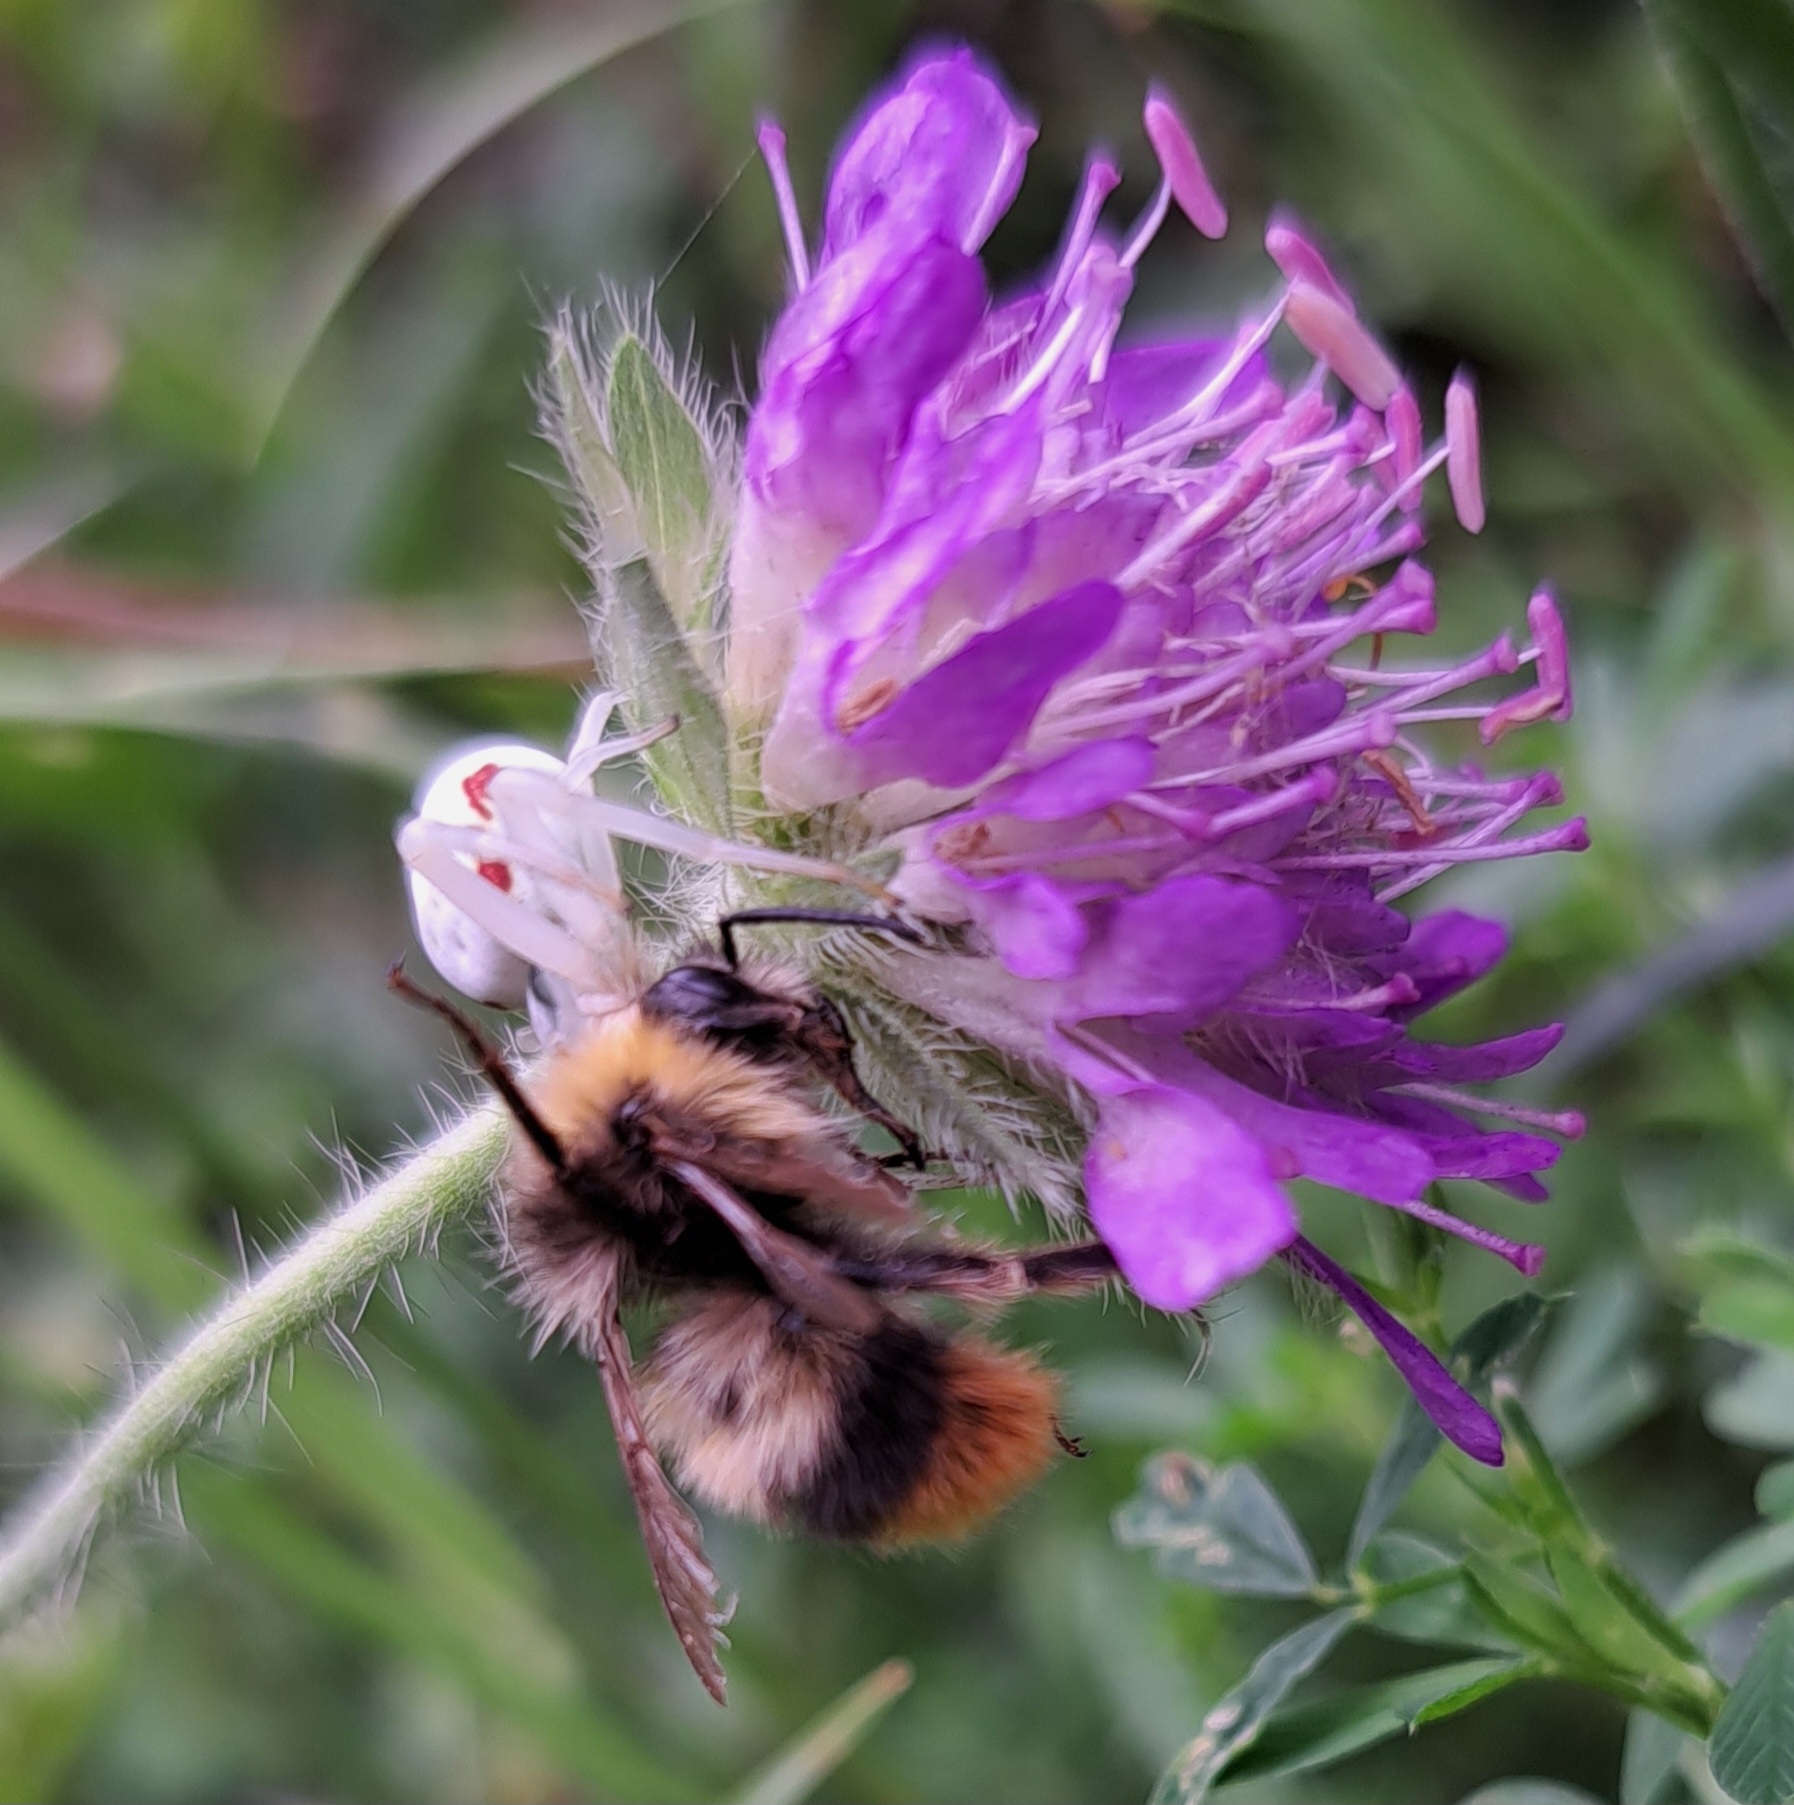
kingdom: Animalia
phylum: Arthropoda
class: Insecta
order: Hymenoptera
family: Apidae
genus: Bombus
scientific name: Bombus pratorum
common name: Early humble-bee
